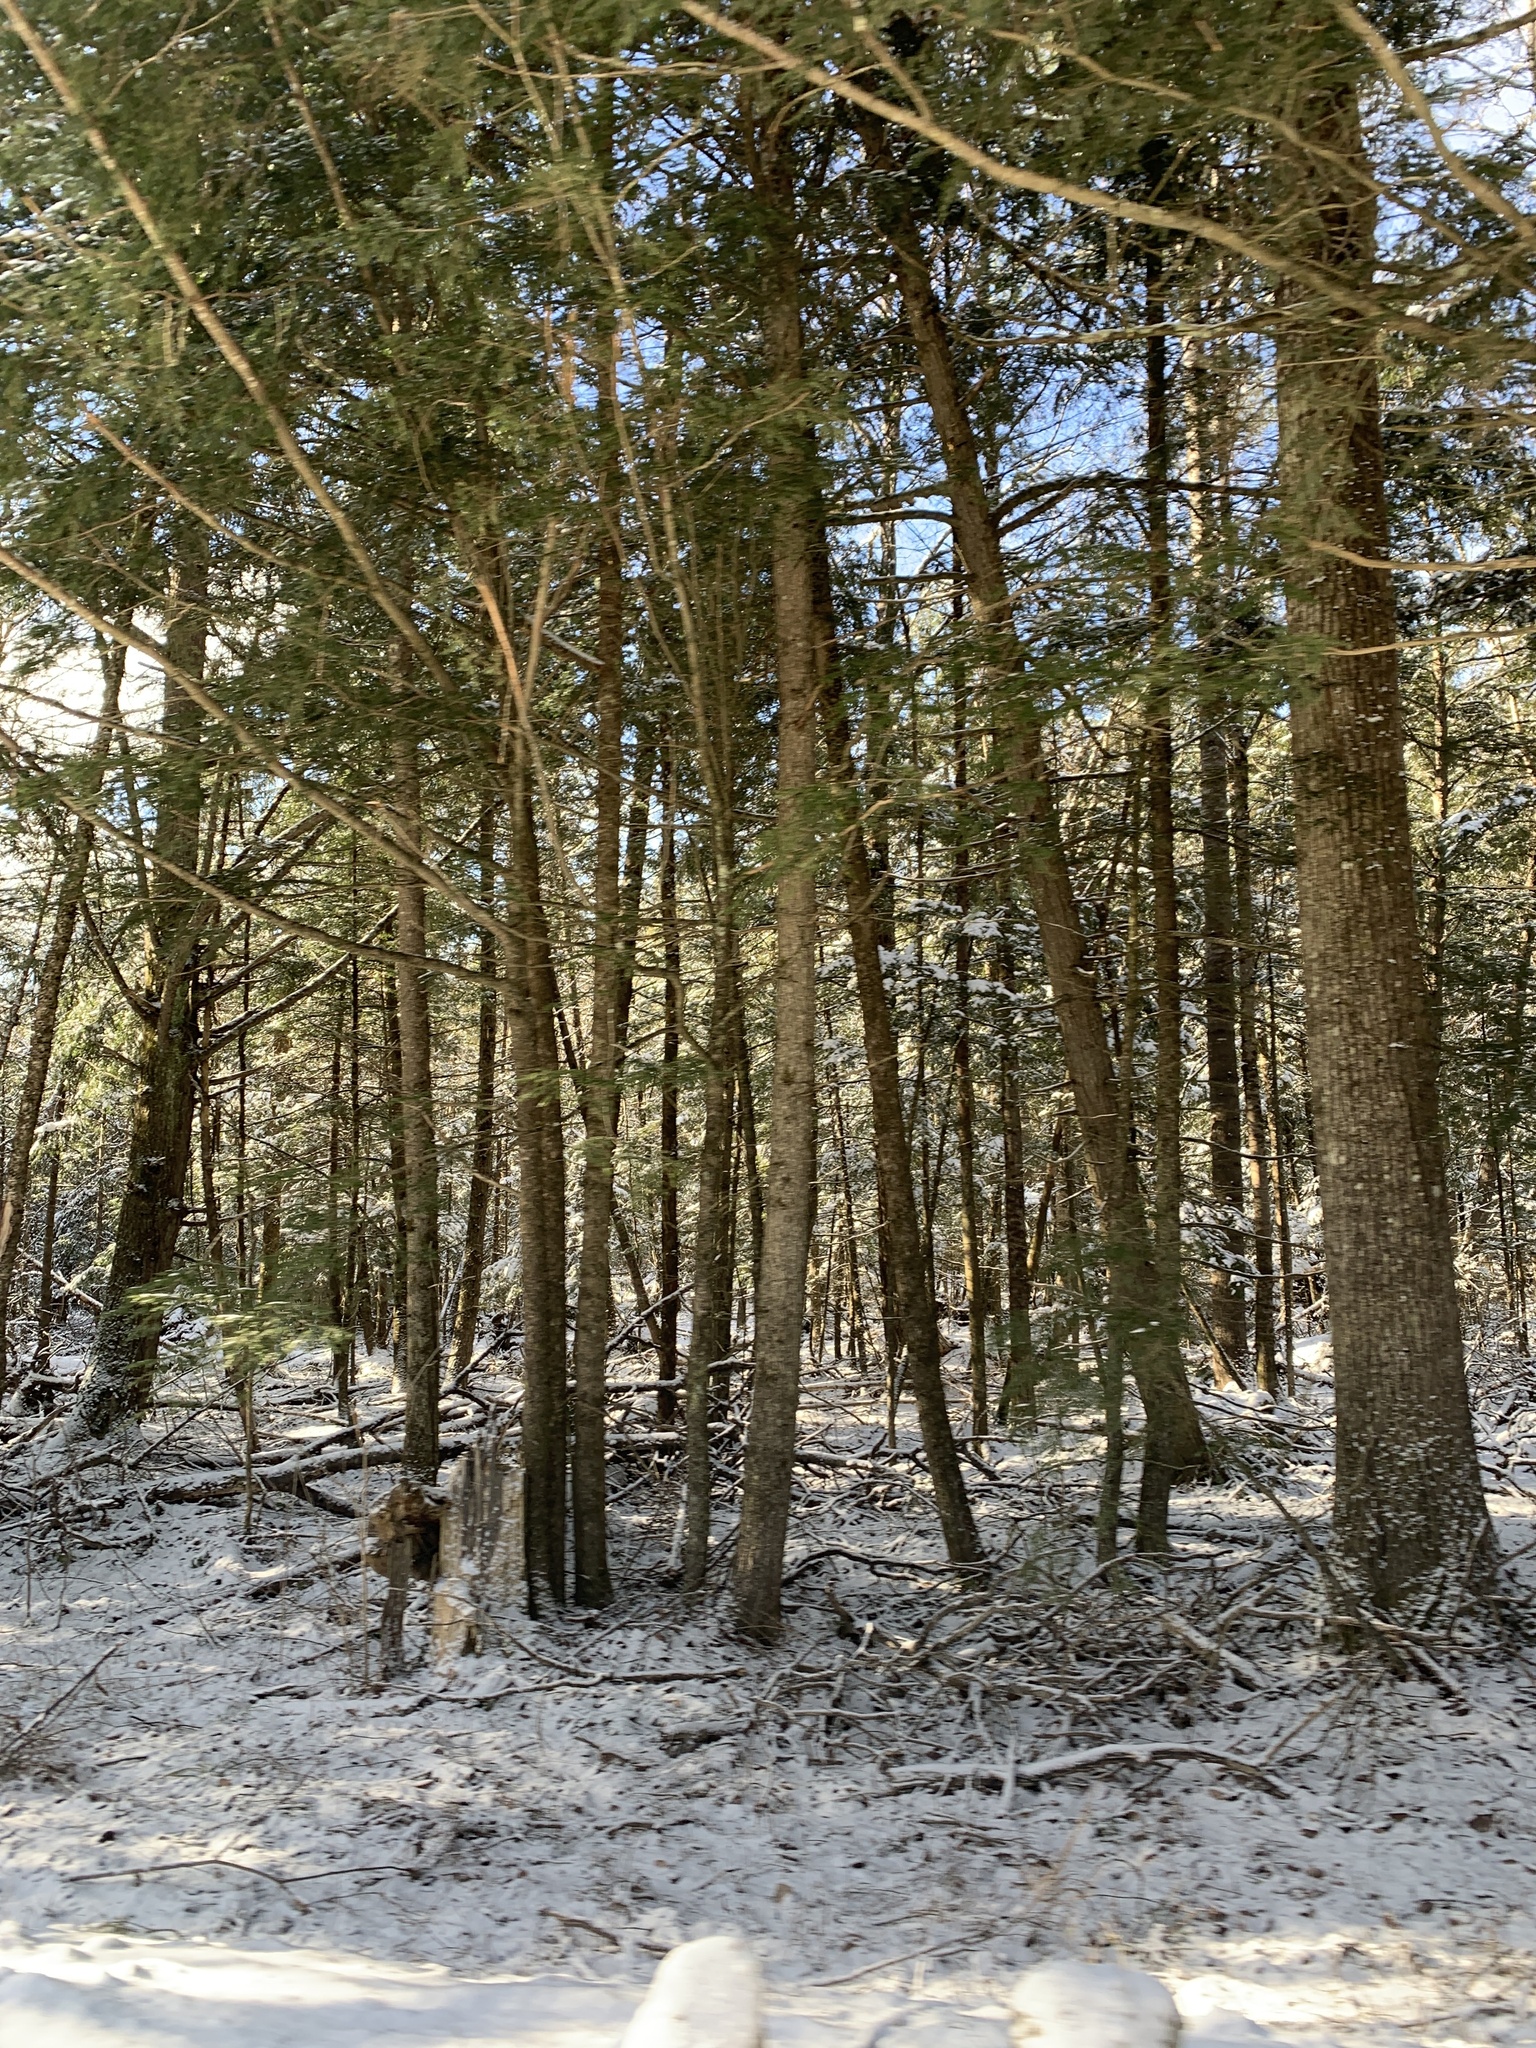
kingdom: Plantae
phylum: Tracheophyta
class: Pinopsida
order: Pinales
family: Pinaceae
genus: Tsuga
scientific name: Tsuga canadensis
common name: Eastern hemlock
